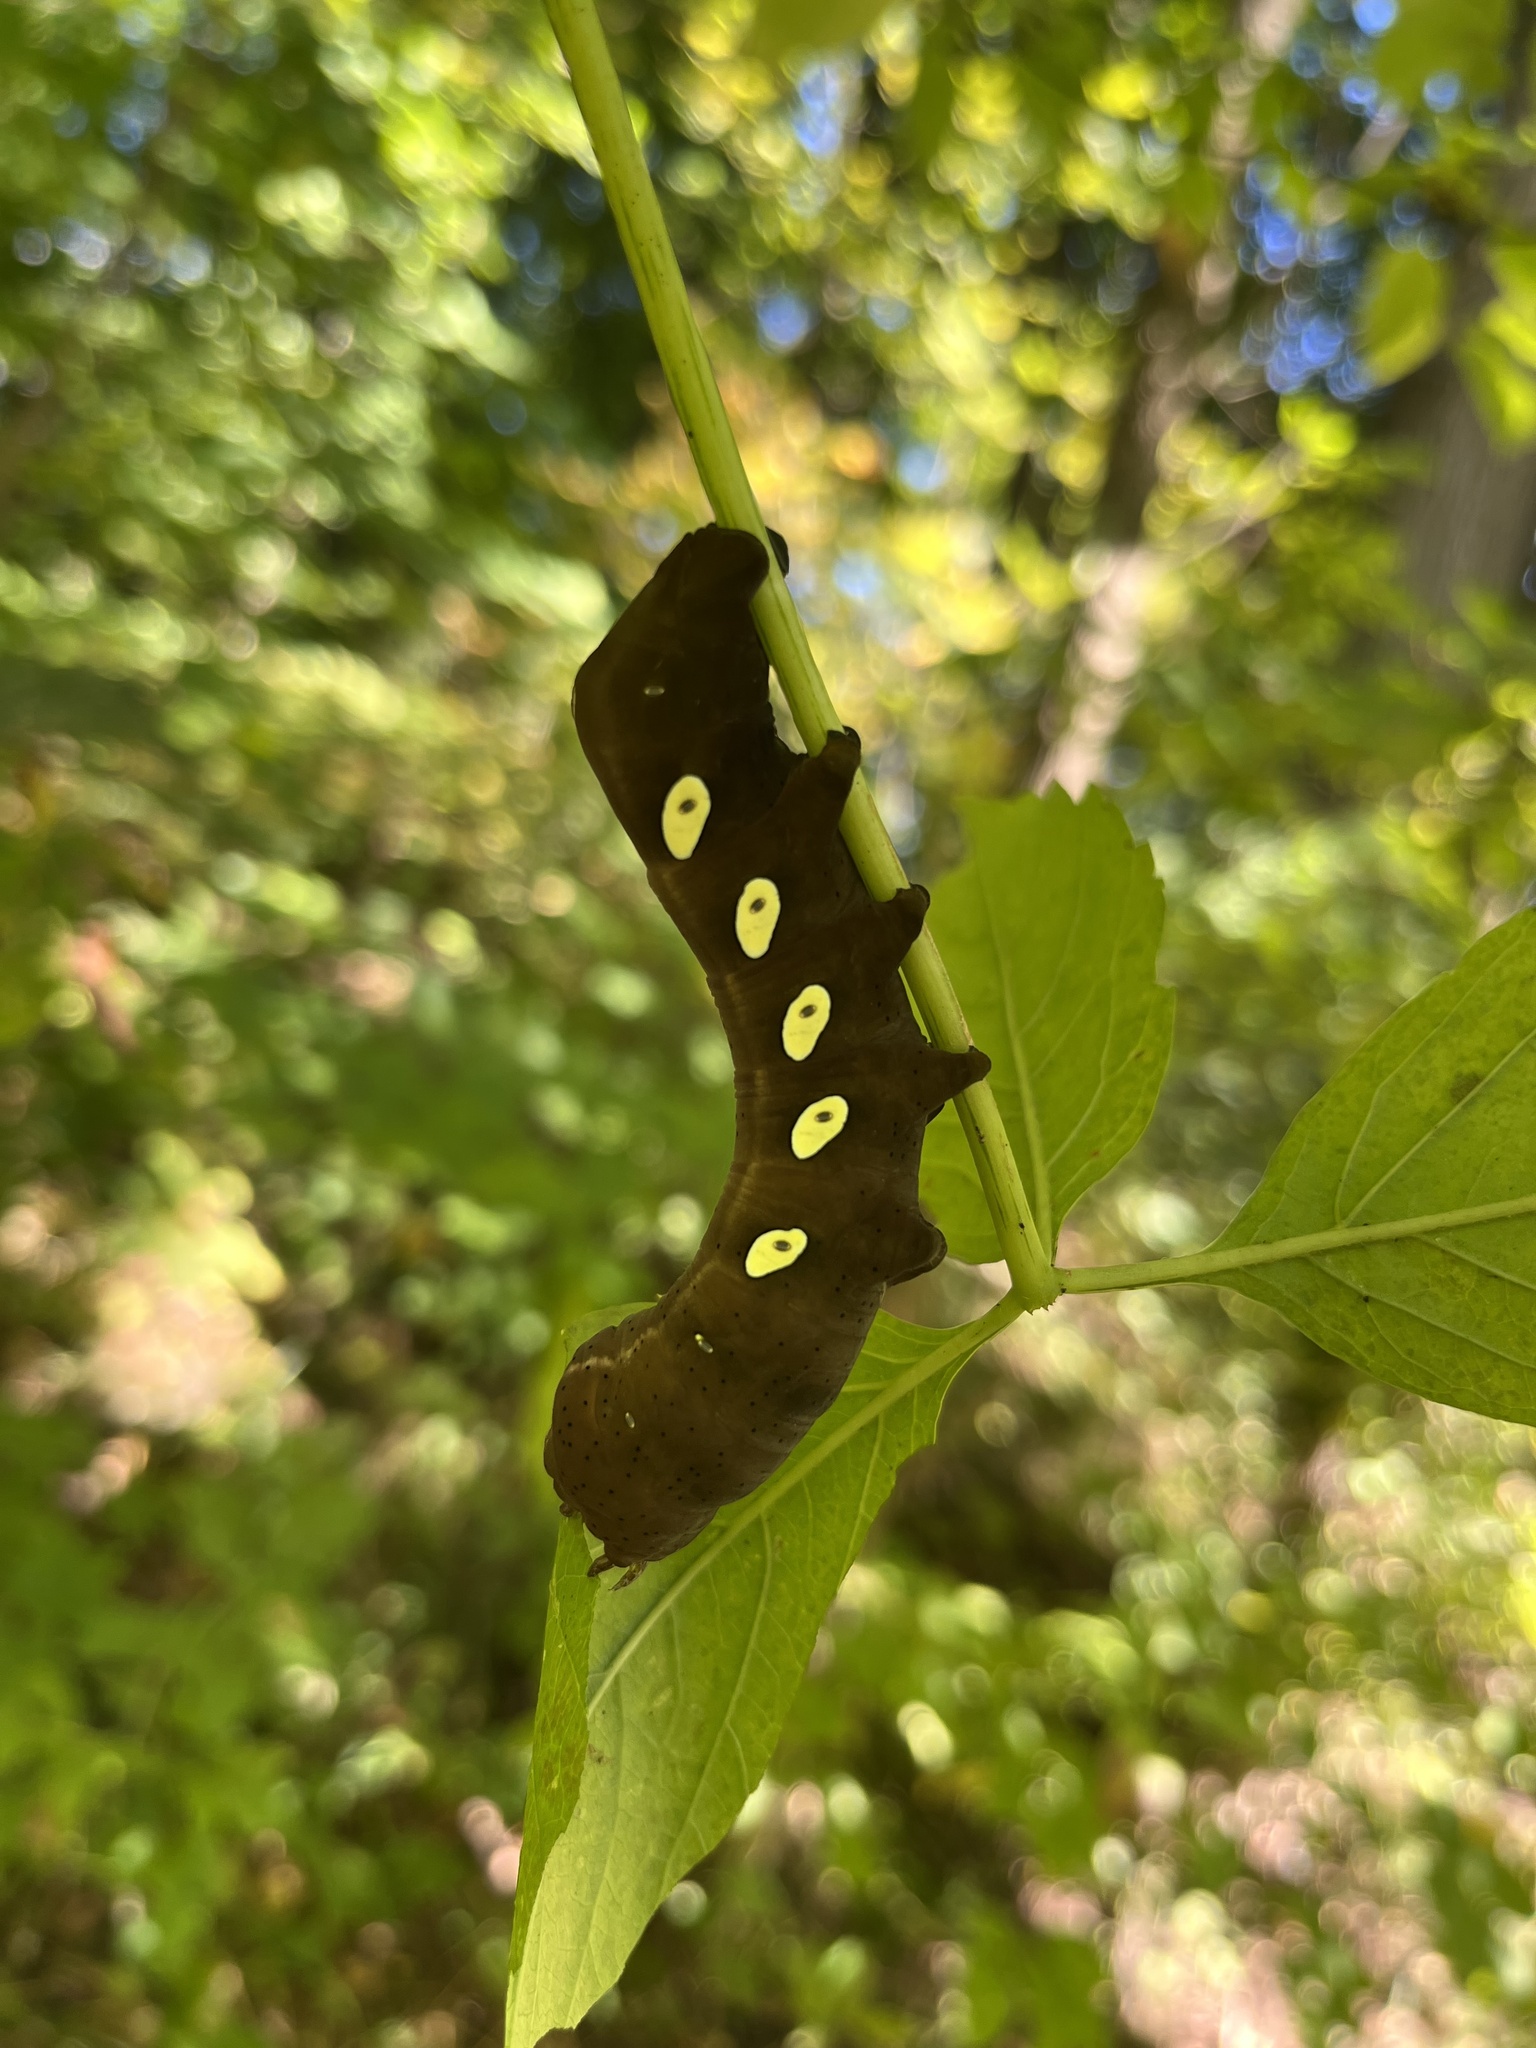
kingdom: Animalia
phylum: Arthropoda
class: Insecta
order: Lepidoptera
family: Sphingidae
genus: Eumorpha
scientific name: Eumorpha pandorus
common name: Pandora sphinx
